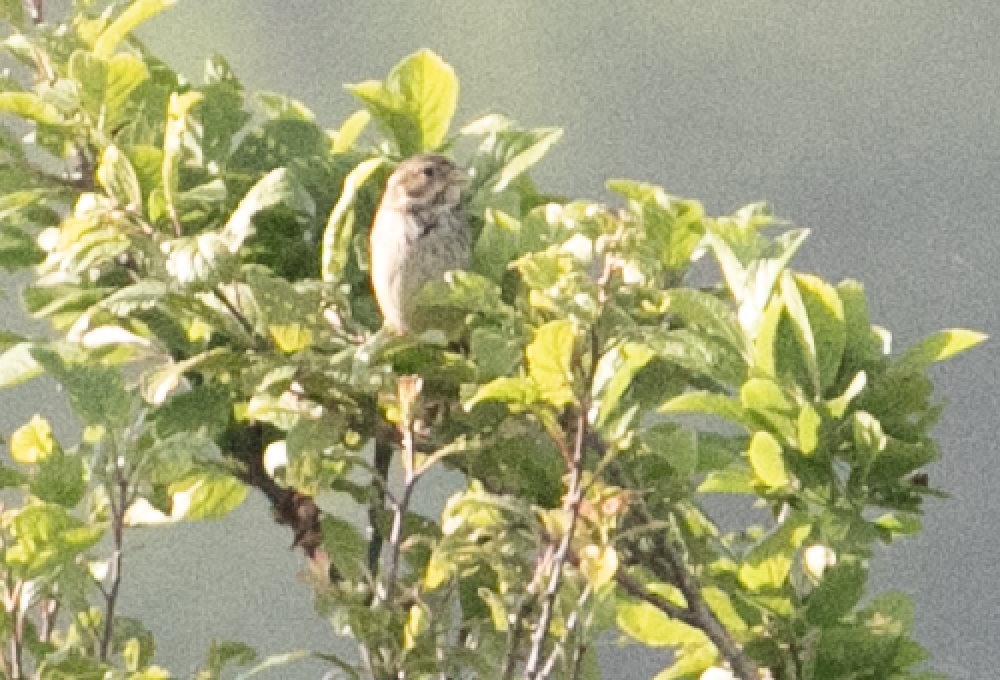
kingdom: Animalia
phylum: Chordata
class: Aves
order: Passeriformes
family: Emberizidae
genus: Emberiza
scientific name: Emberiza calandra
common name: Corn bunting
